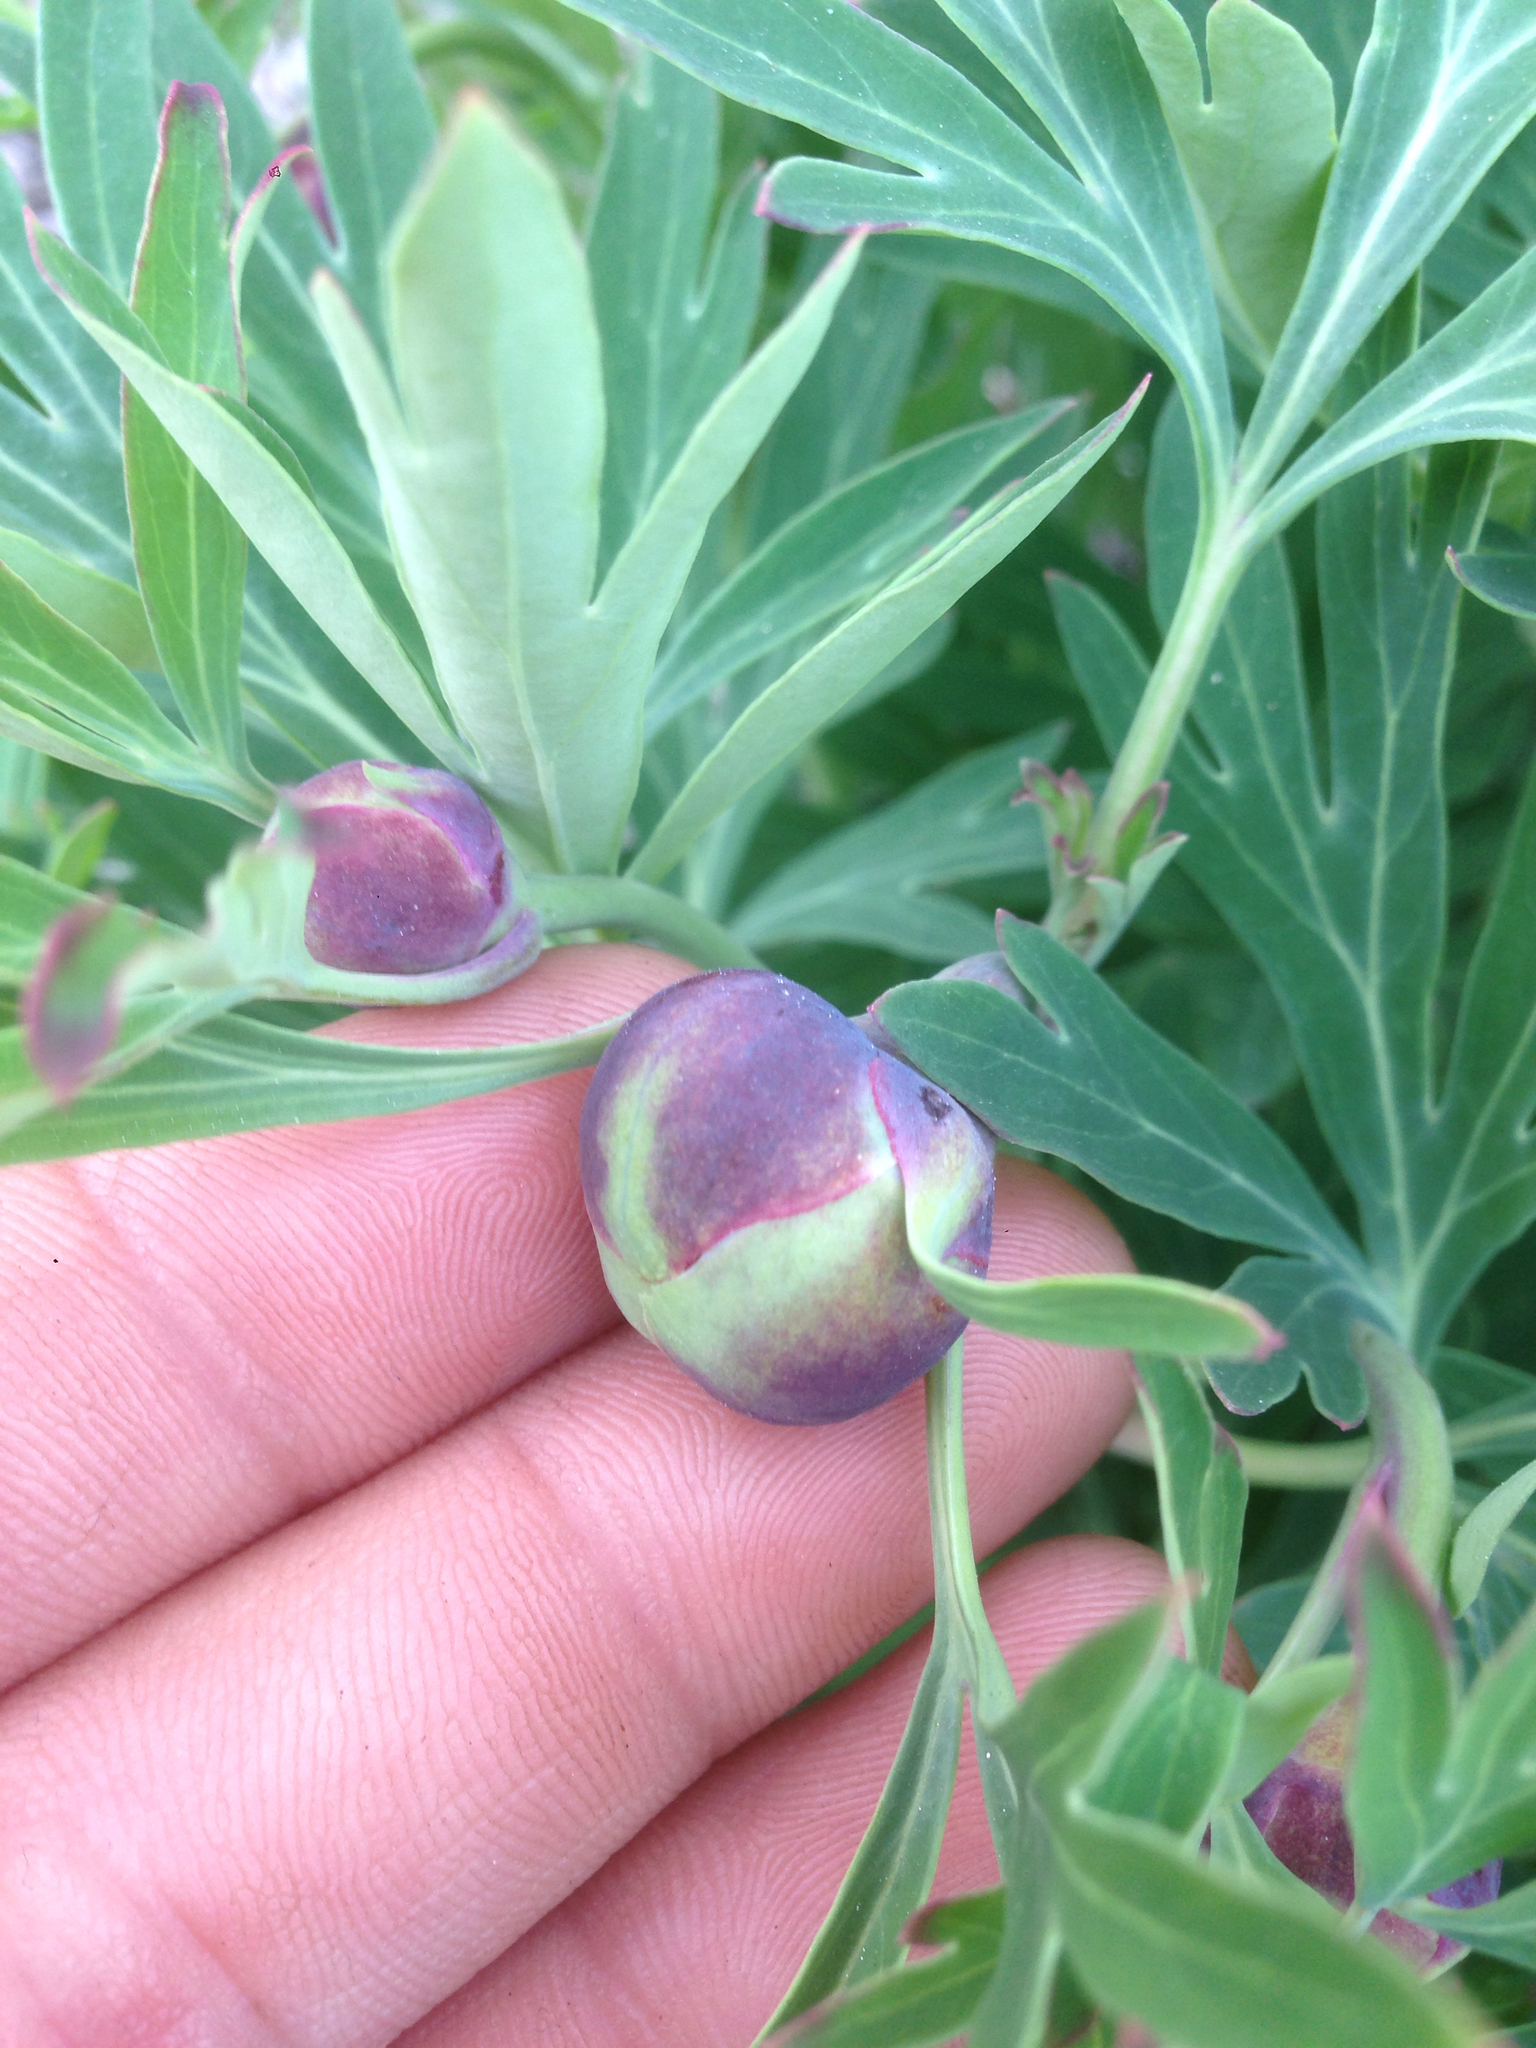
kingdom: Plantae
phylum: Tracheophyta
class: Magnoliopsida
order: Saxifragales
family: Paeoniaceae
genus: Paeonia
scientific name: Paeonia californica
